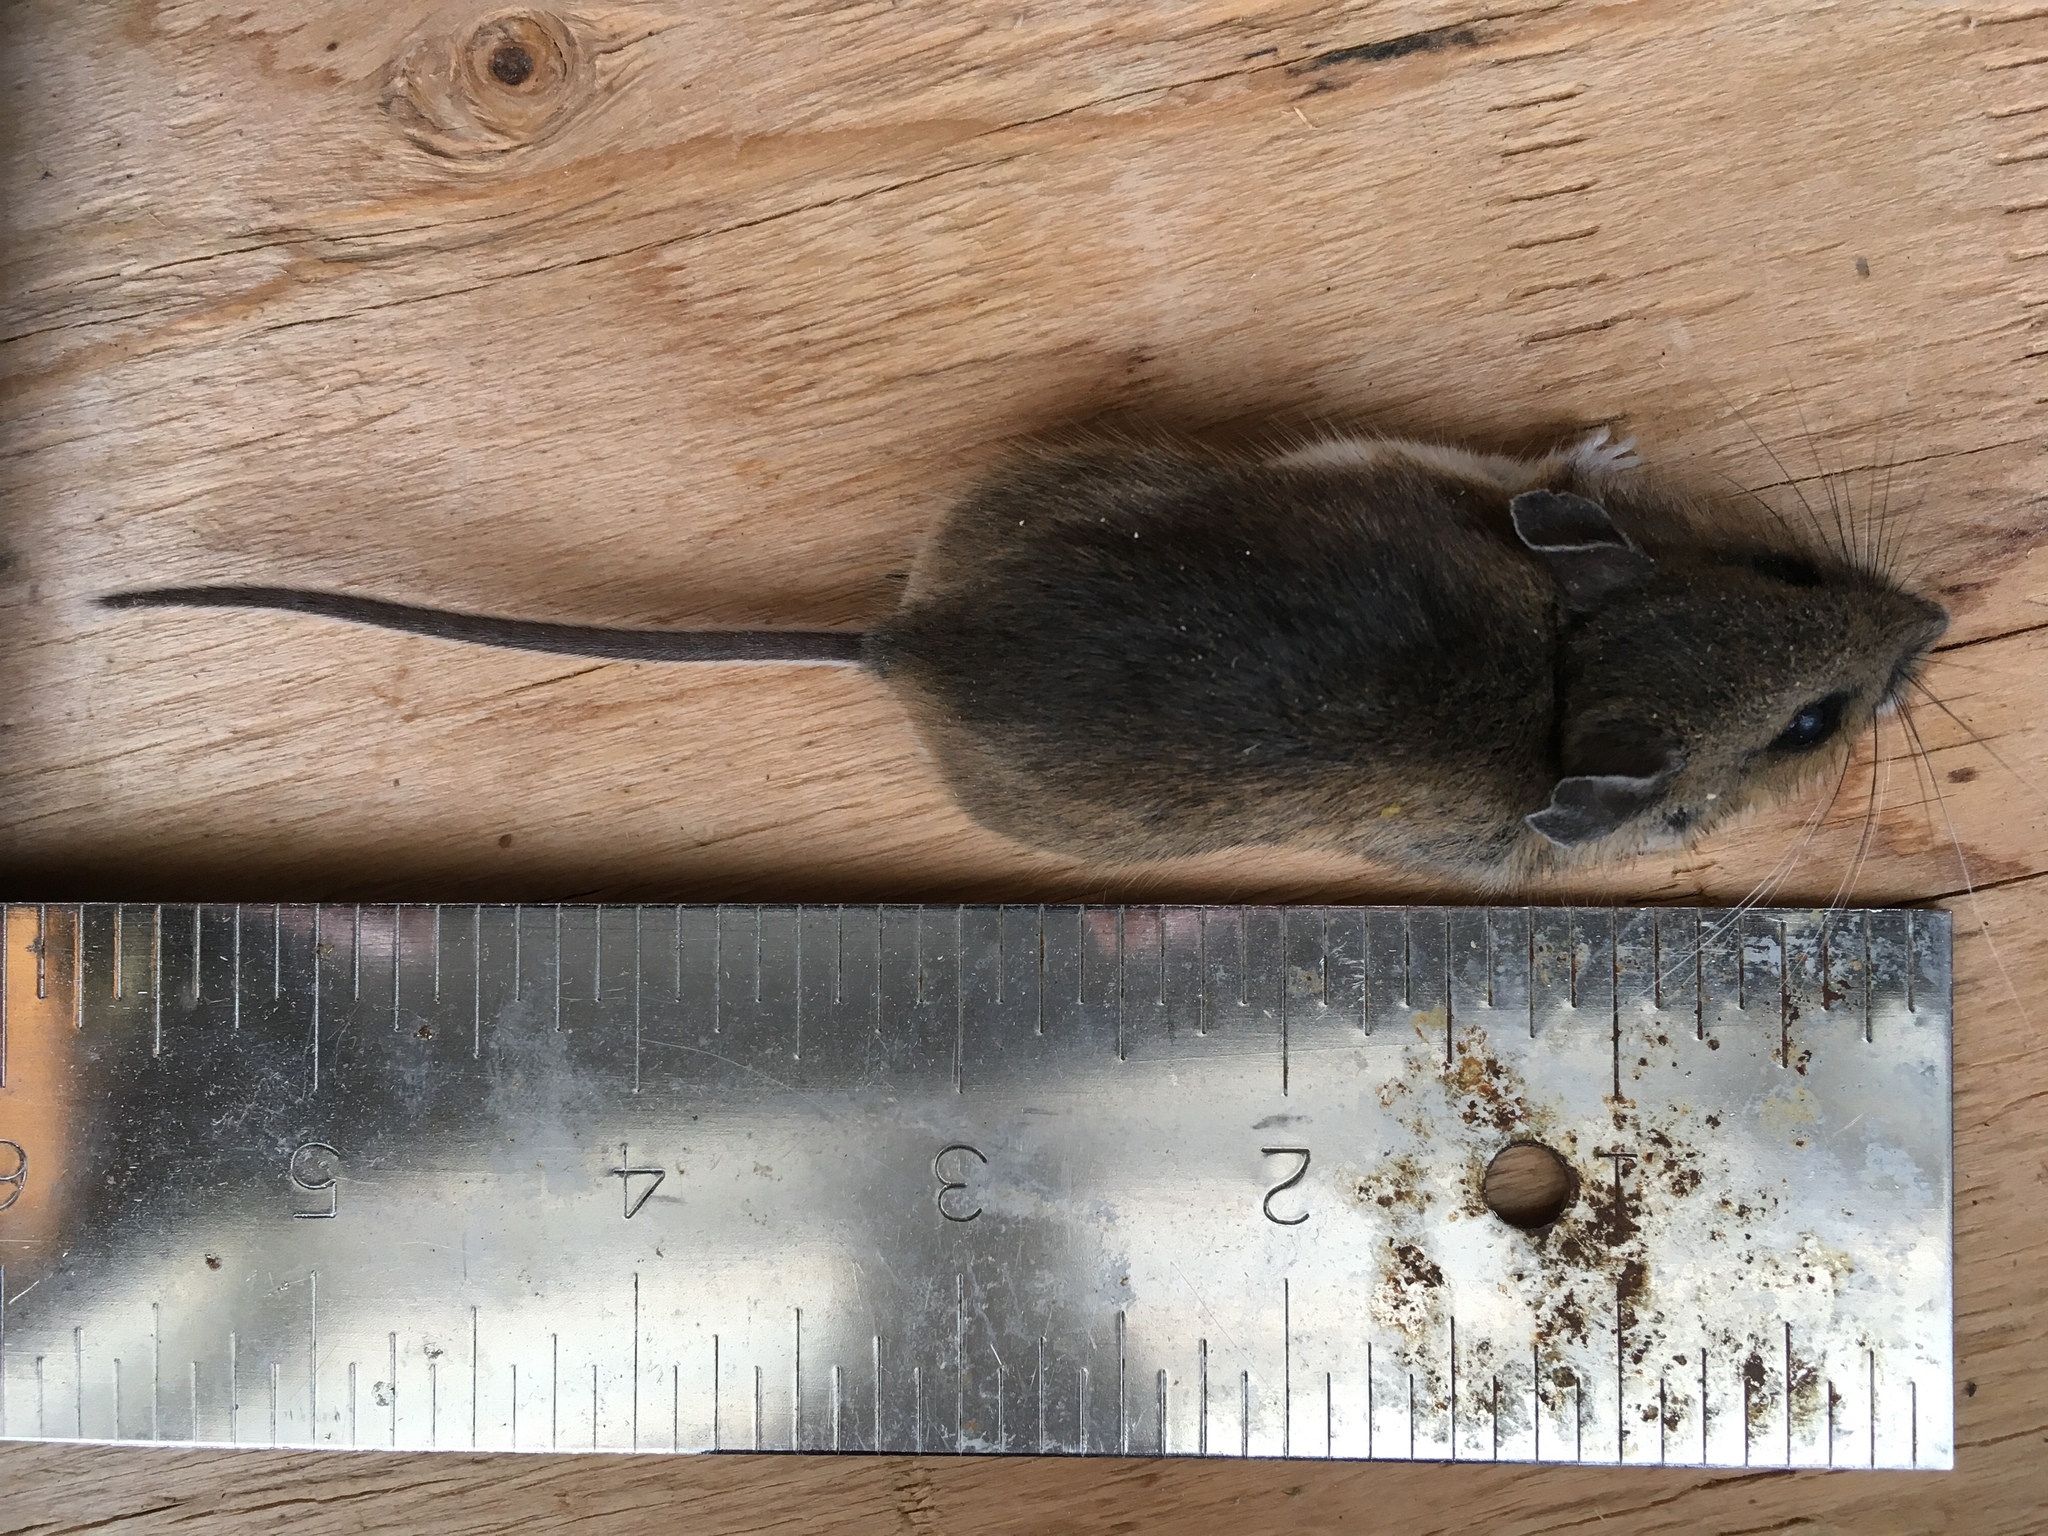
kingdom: Animalia
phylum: Chordata
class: Mammalia
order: Rodentia
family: Cricetidae
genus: Peromyscus
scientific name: Peromyscus maniculatus
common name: Deer mouse
